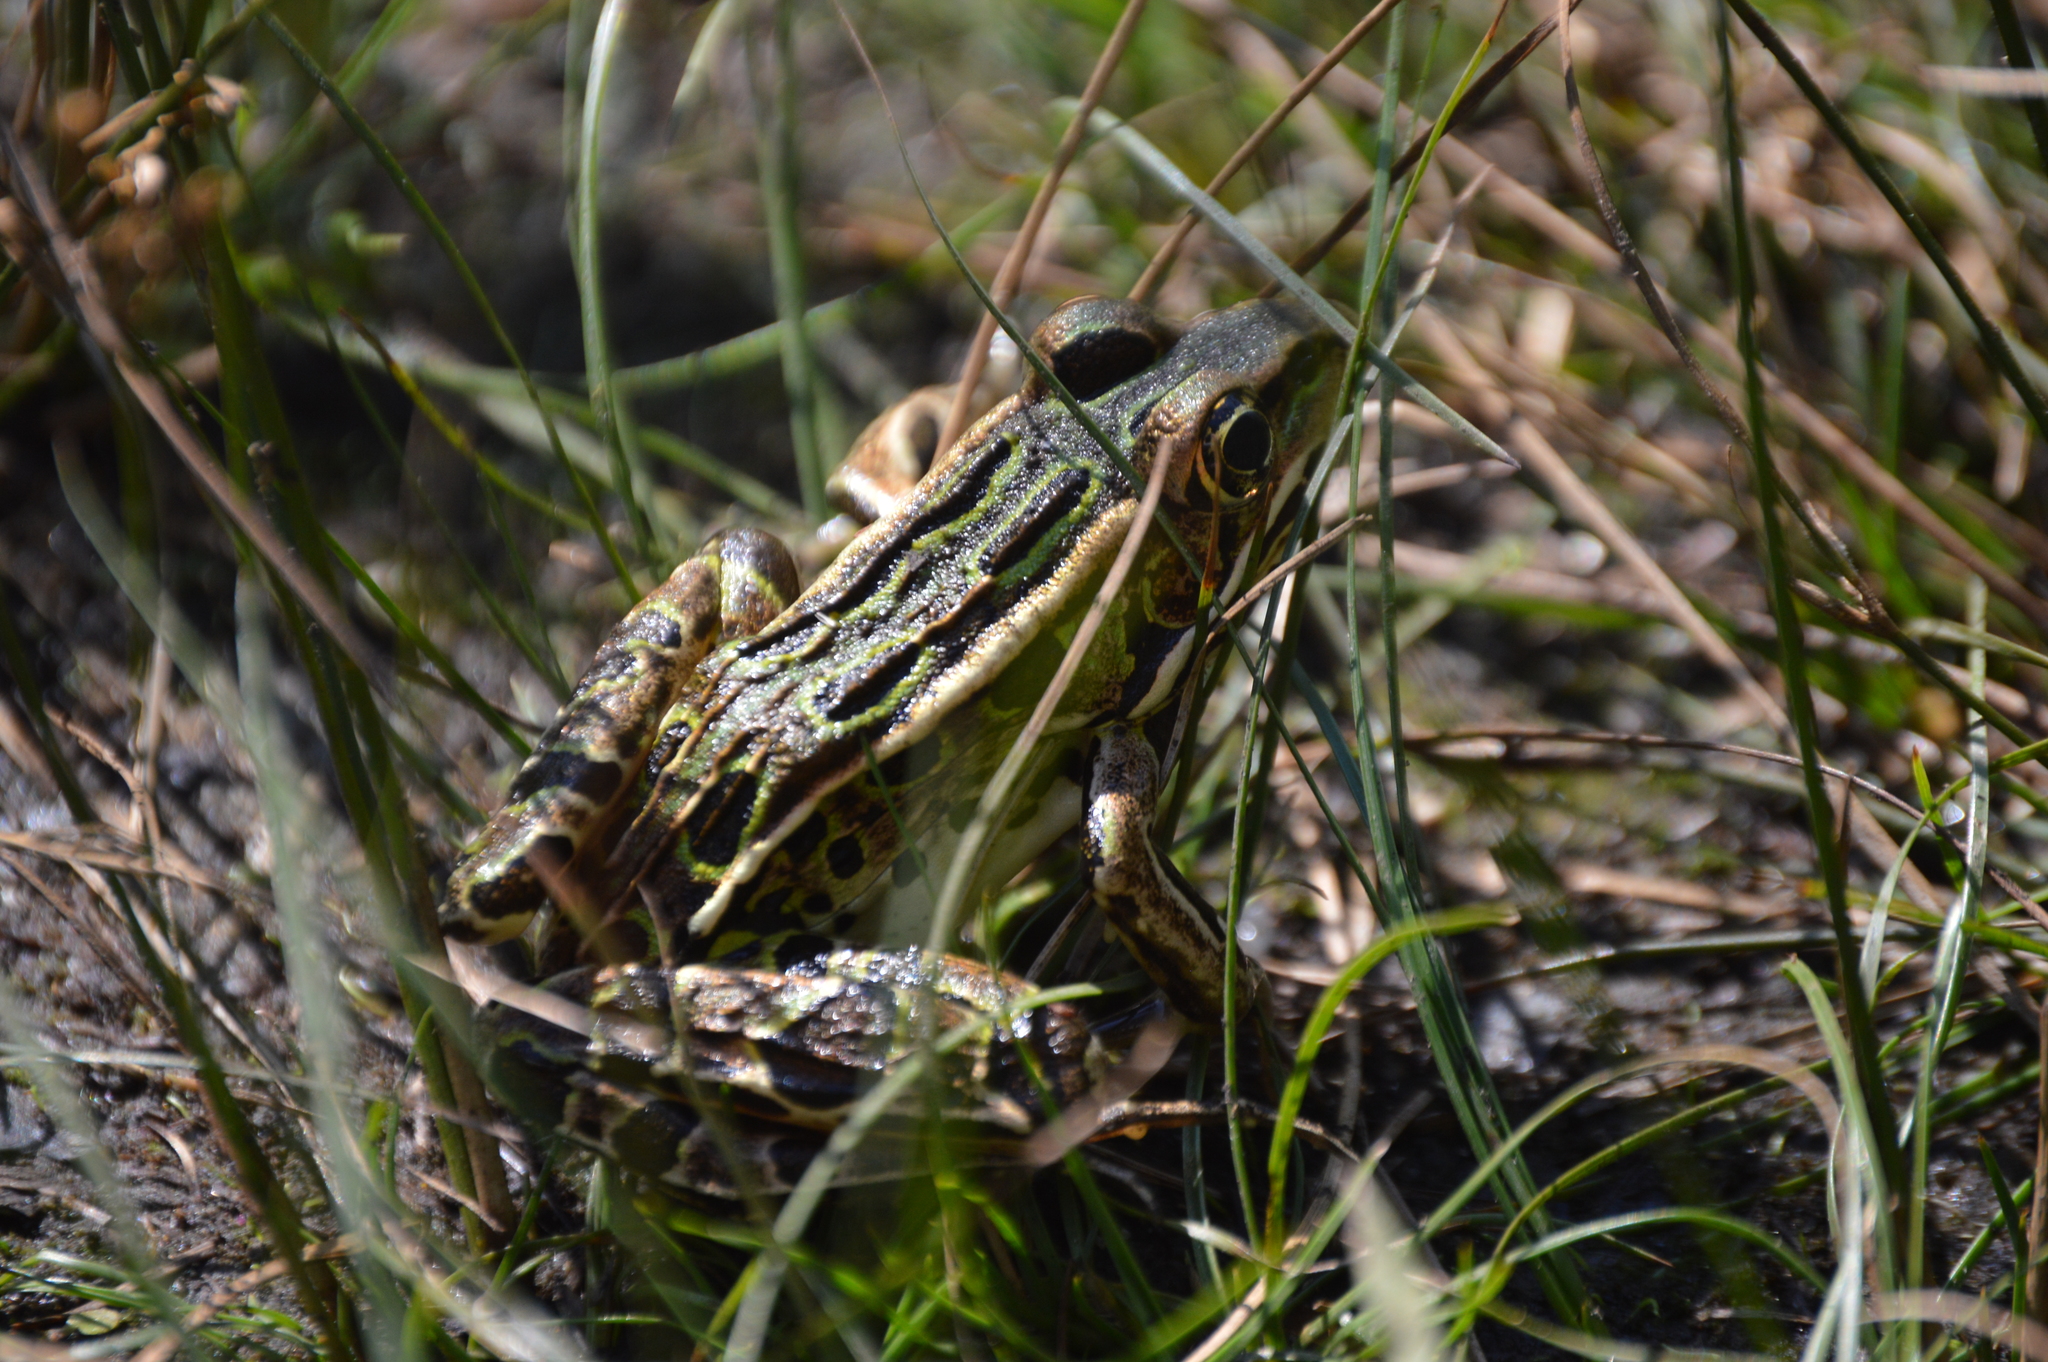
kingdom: Animalia
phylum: Chordata
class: Amphibia
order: Anura
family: Ranidae
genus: Lithobates
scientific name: Lithobates pipiens
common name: Northern leopard frog
